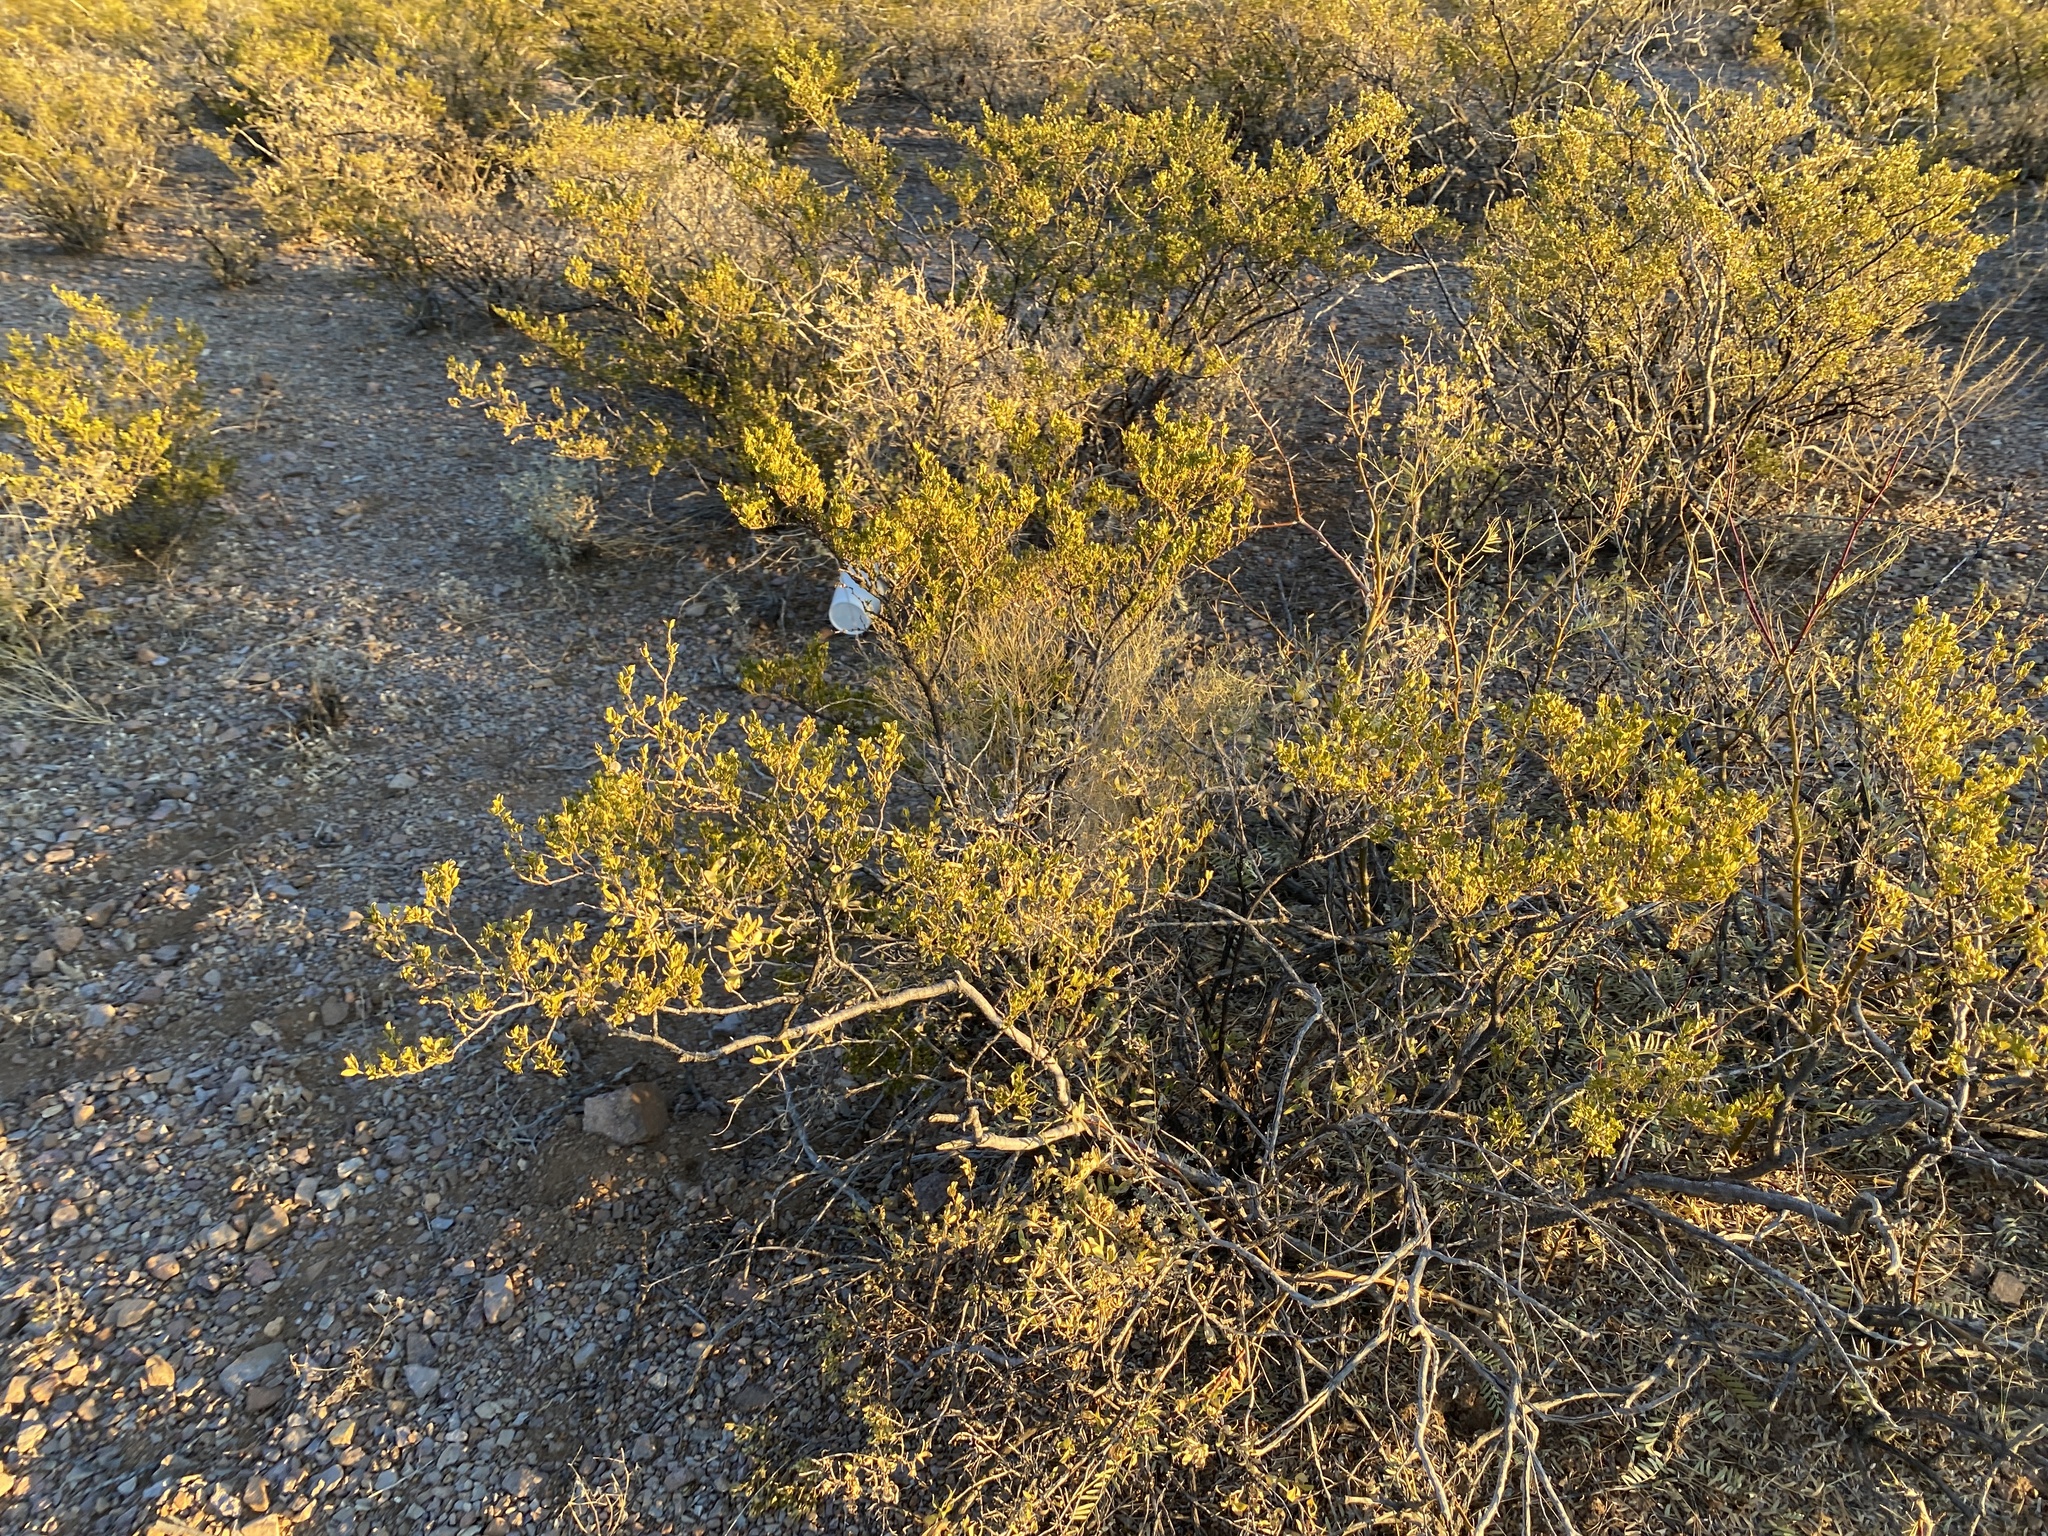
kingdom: Plantae
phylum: Tracheophyta
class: Magnoliopsida
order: Zygophyllales
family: Zygophyllaceae
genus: Larrea
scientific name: Larrea tridentata
